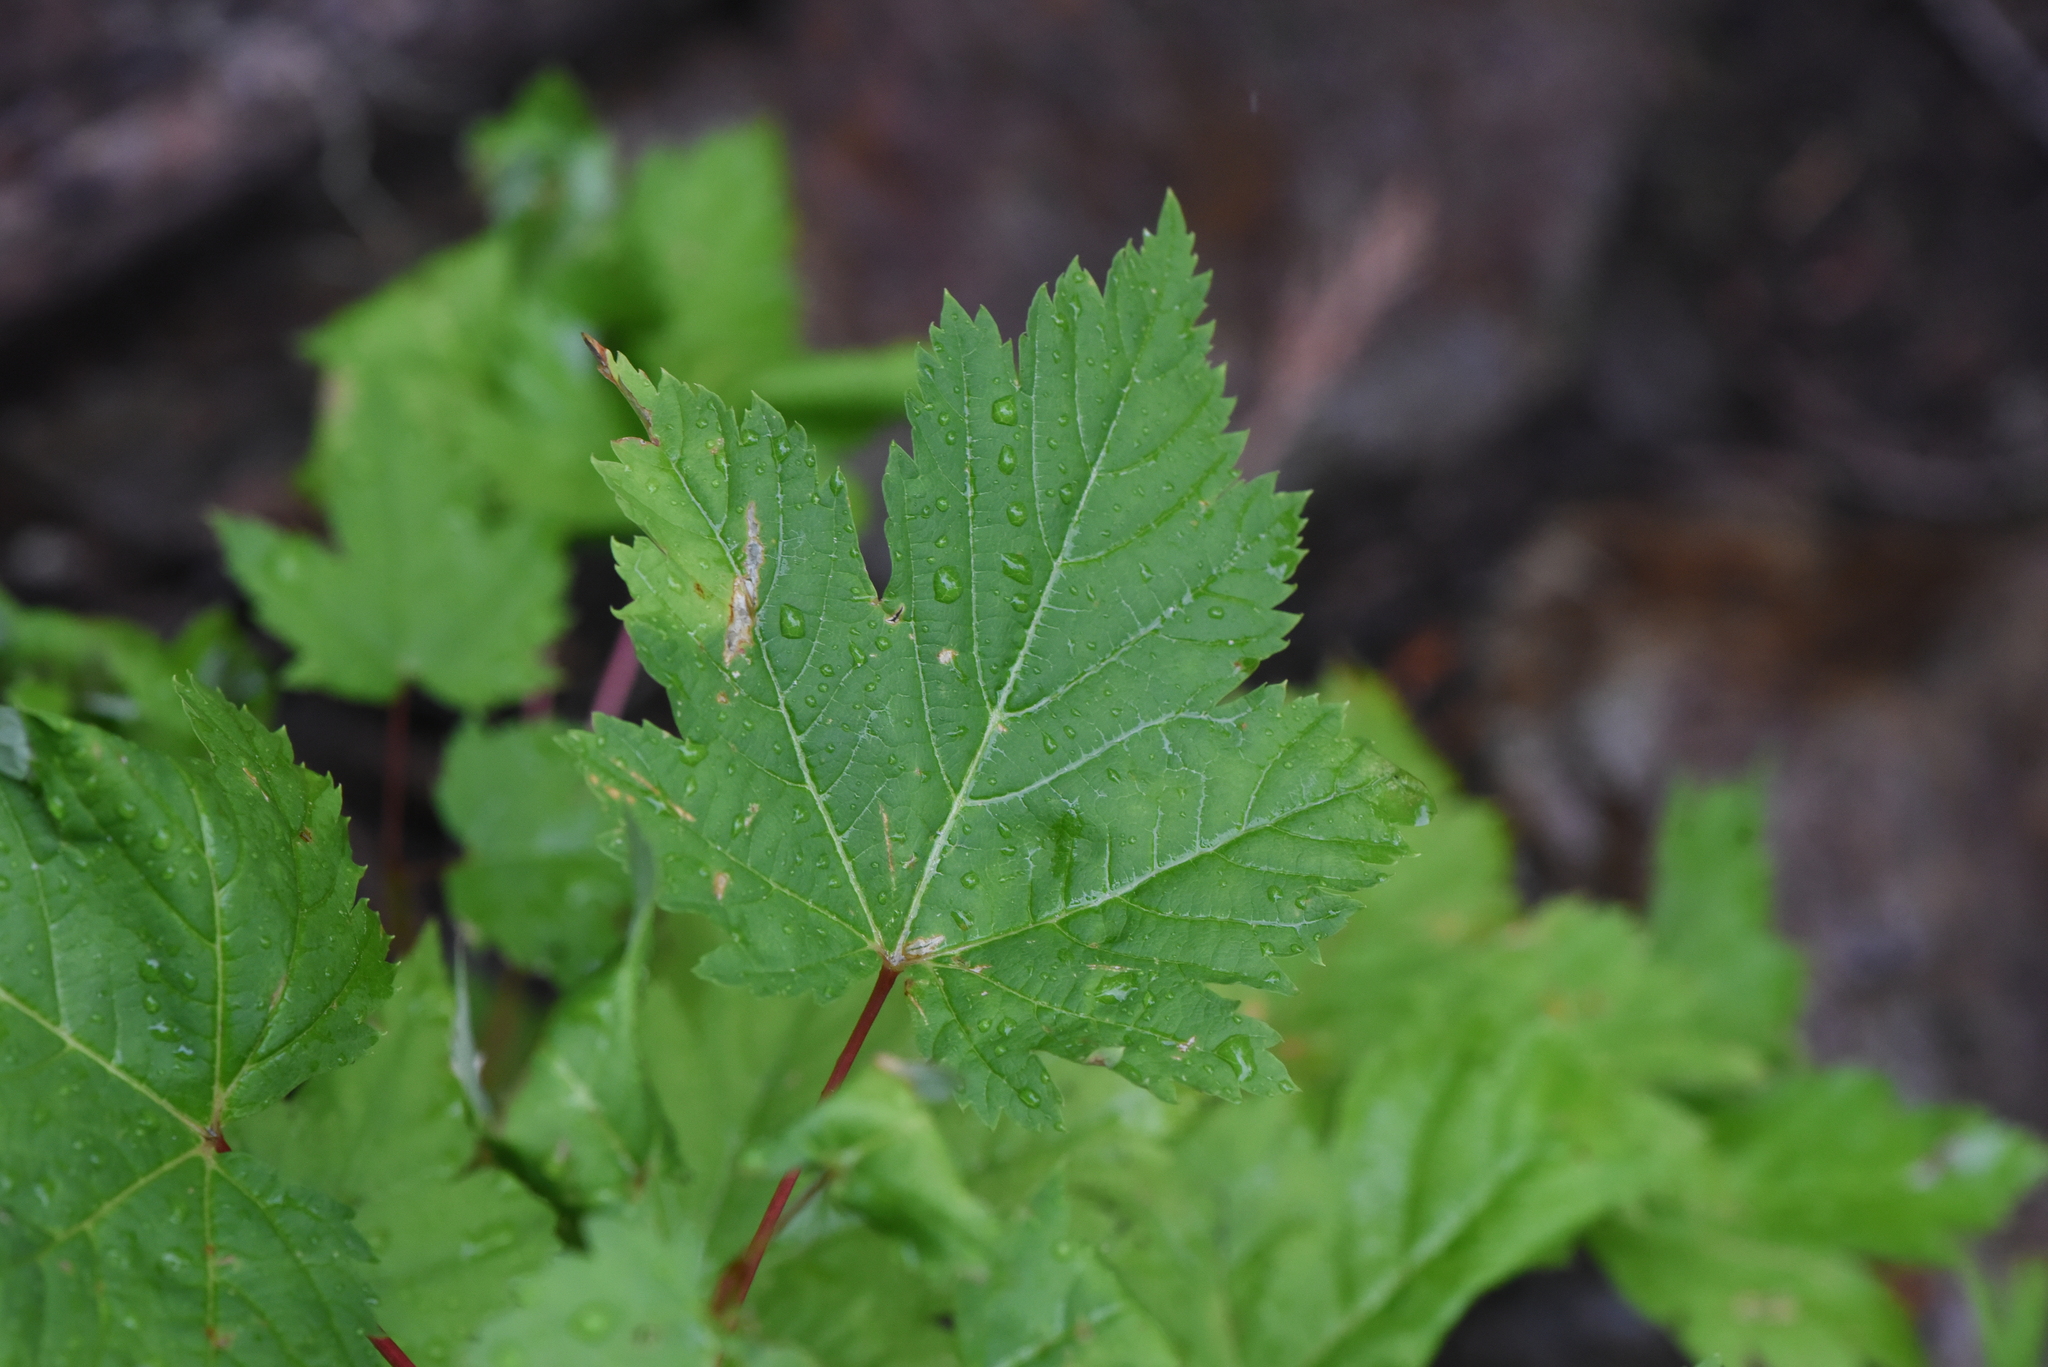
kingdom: Plantae
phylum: Tracheophyta
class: Magnoliopsida
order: Sapindales
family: Sapindaceae
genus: Acer
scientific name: Acer glabrum
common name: Rocky mountain maple
